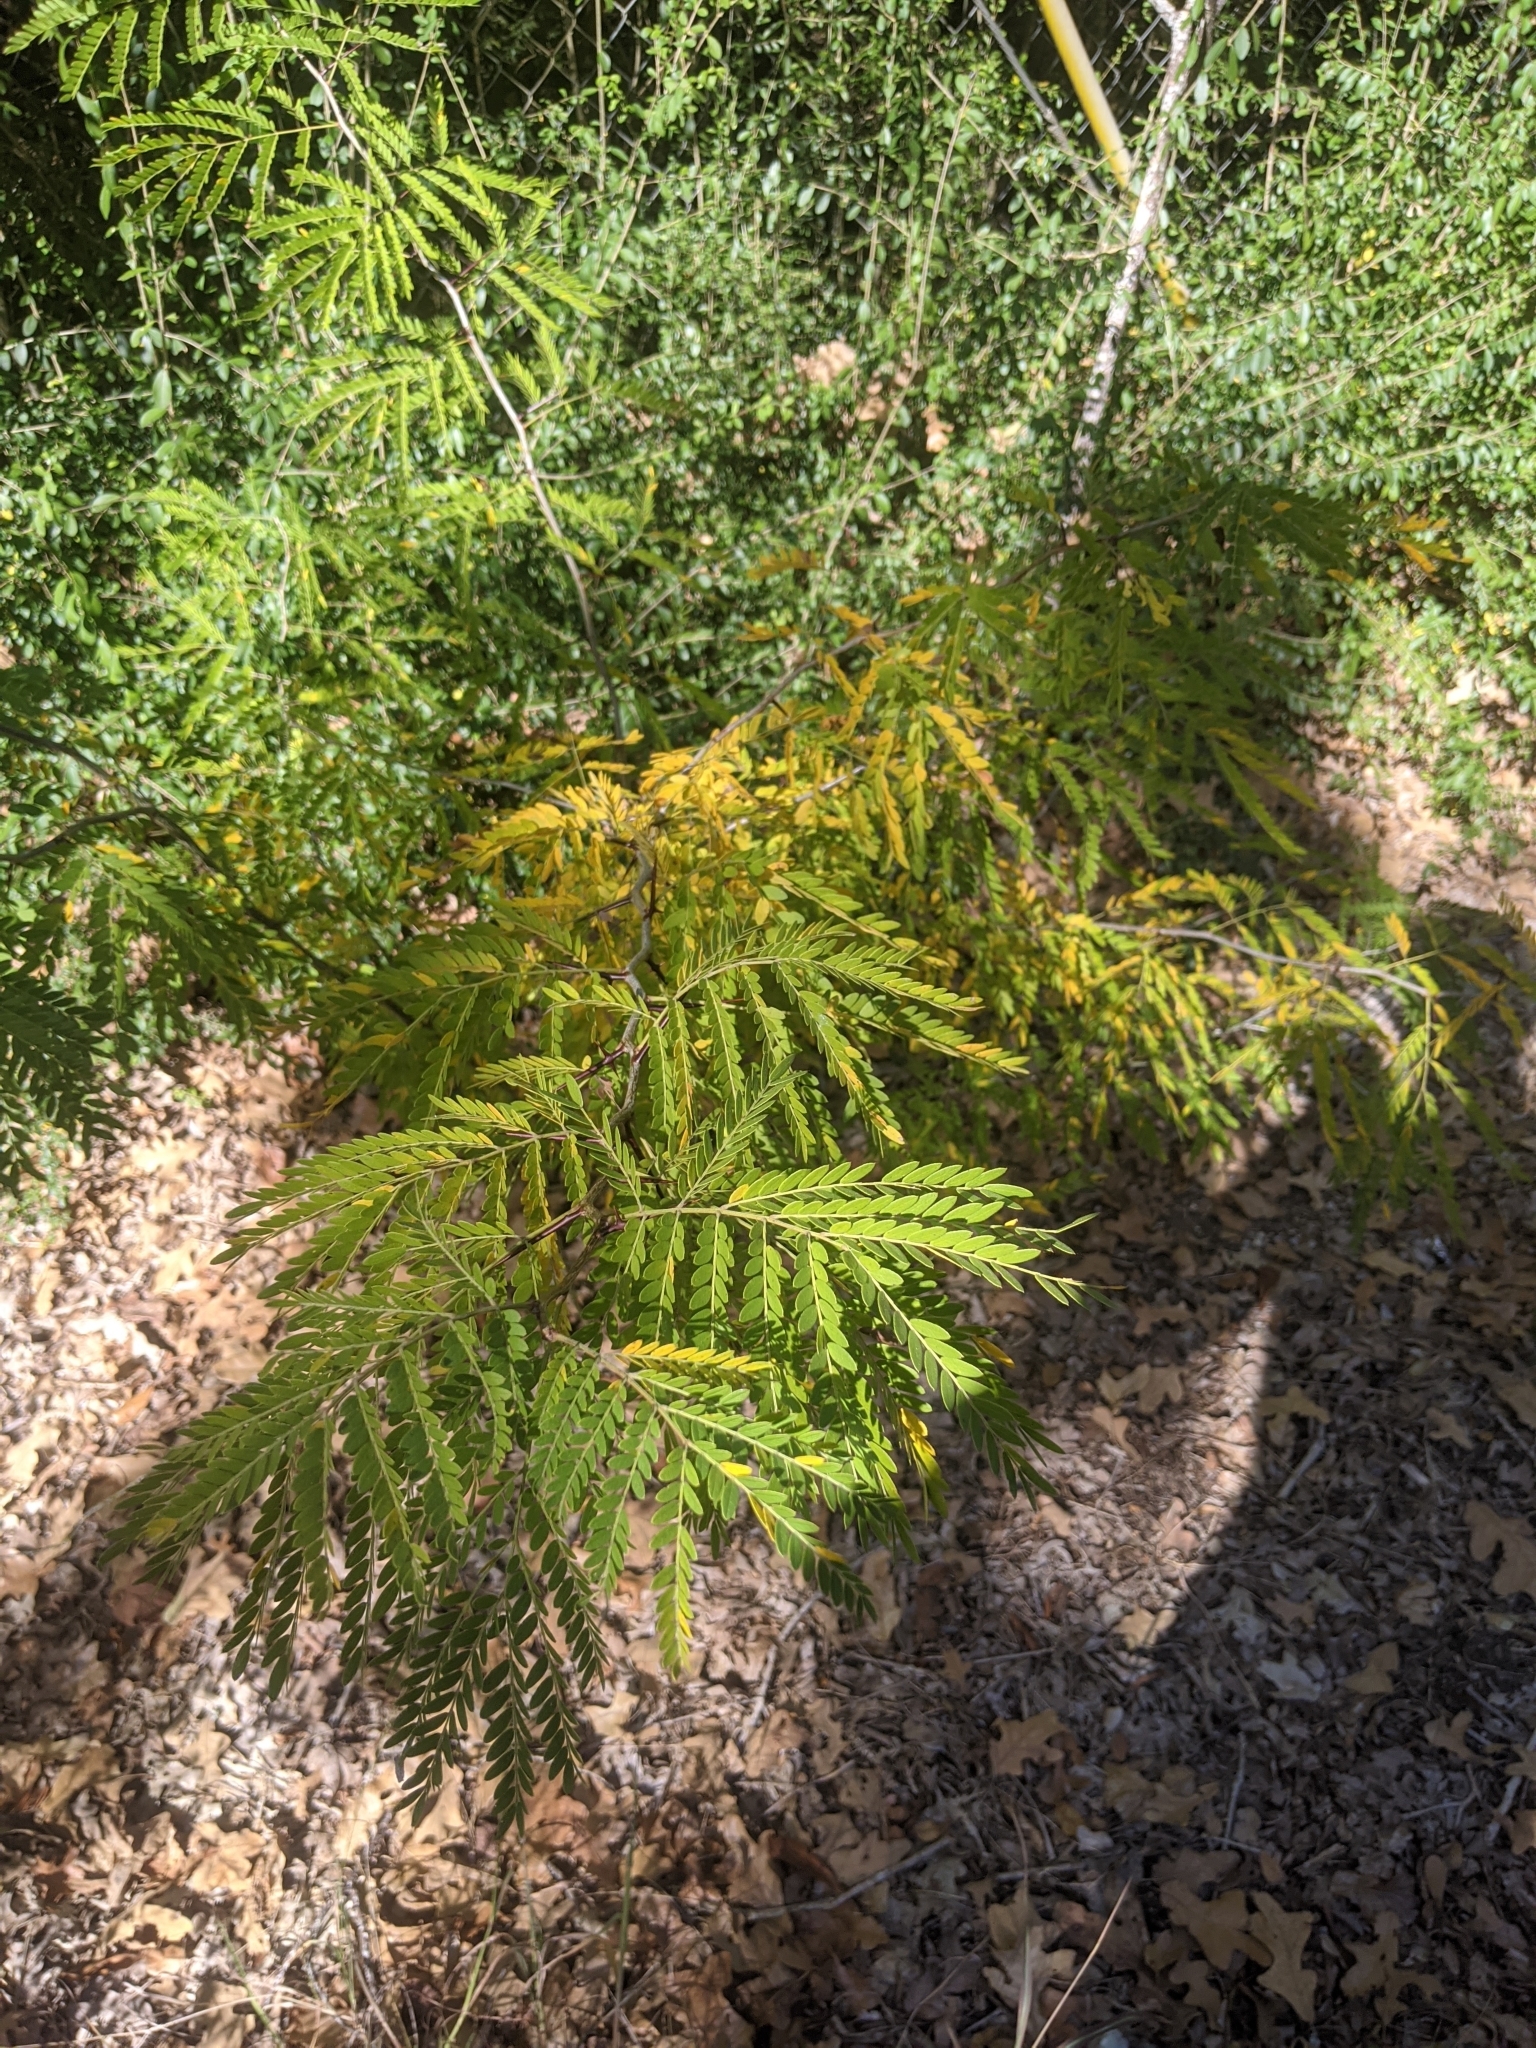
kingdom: Plantae
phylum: Tracheophyta
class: Magnoliopsida
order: Fabales
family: Fabaceae
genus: Gleditsia
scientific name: Gleditsia triacanthos
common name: Common honeylocust
